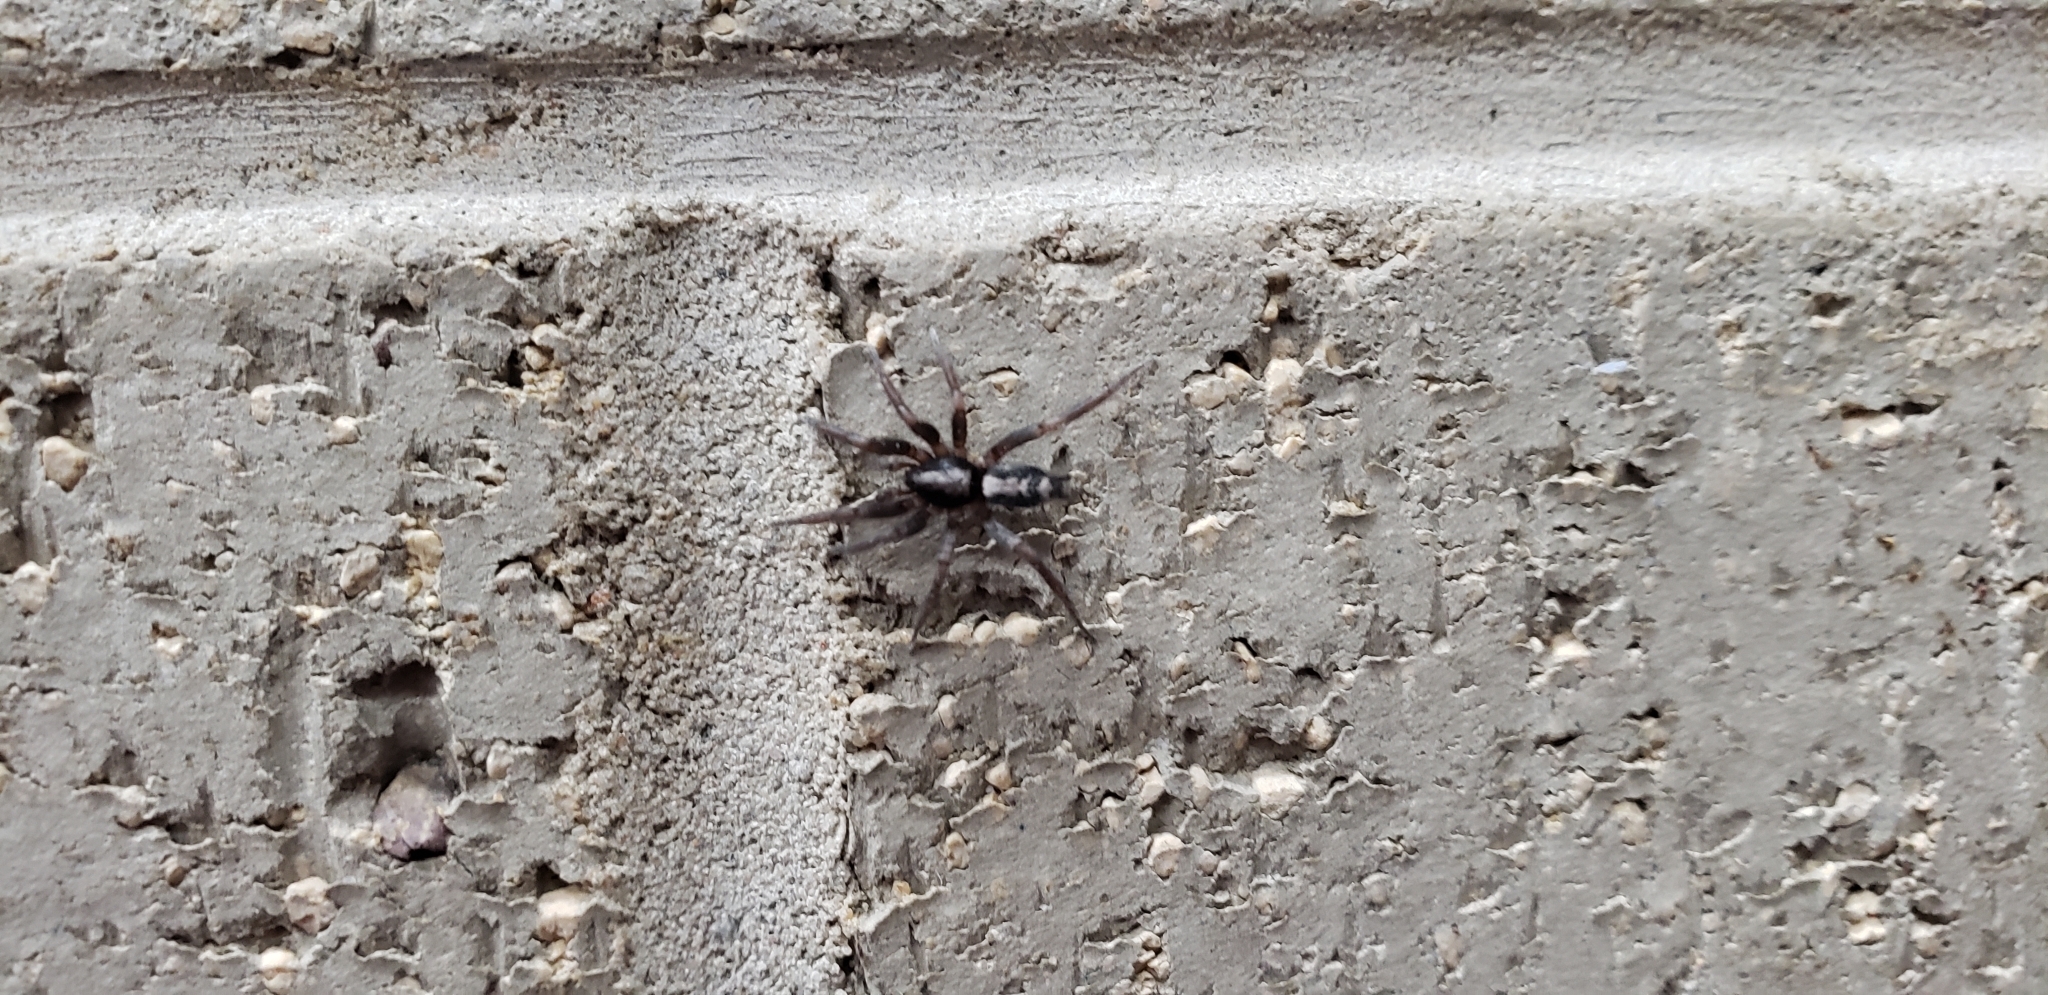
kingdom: Animalia
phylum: Arthropoda
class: Arachnida
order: Araneae
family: Gnaphosidae
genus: Herpyllus
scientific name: Herpyllus ecclesiasticus
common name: Eastern parson spider
